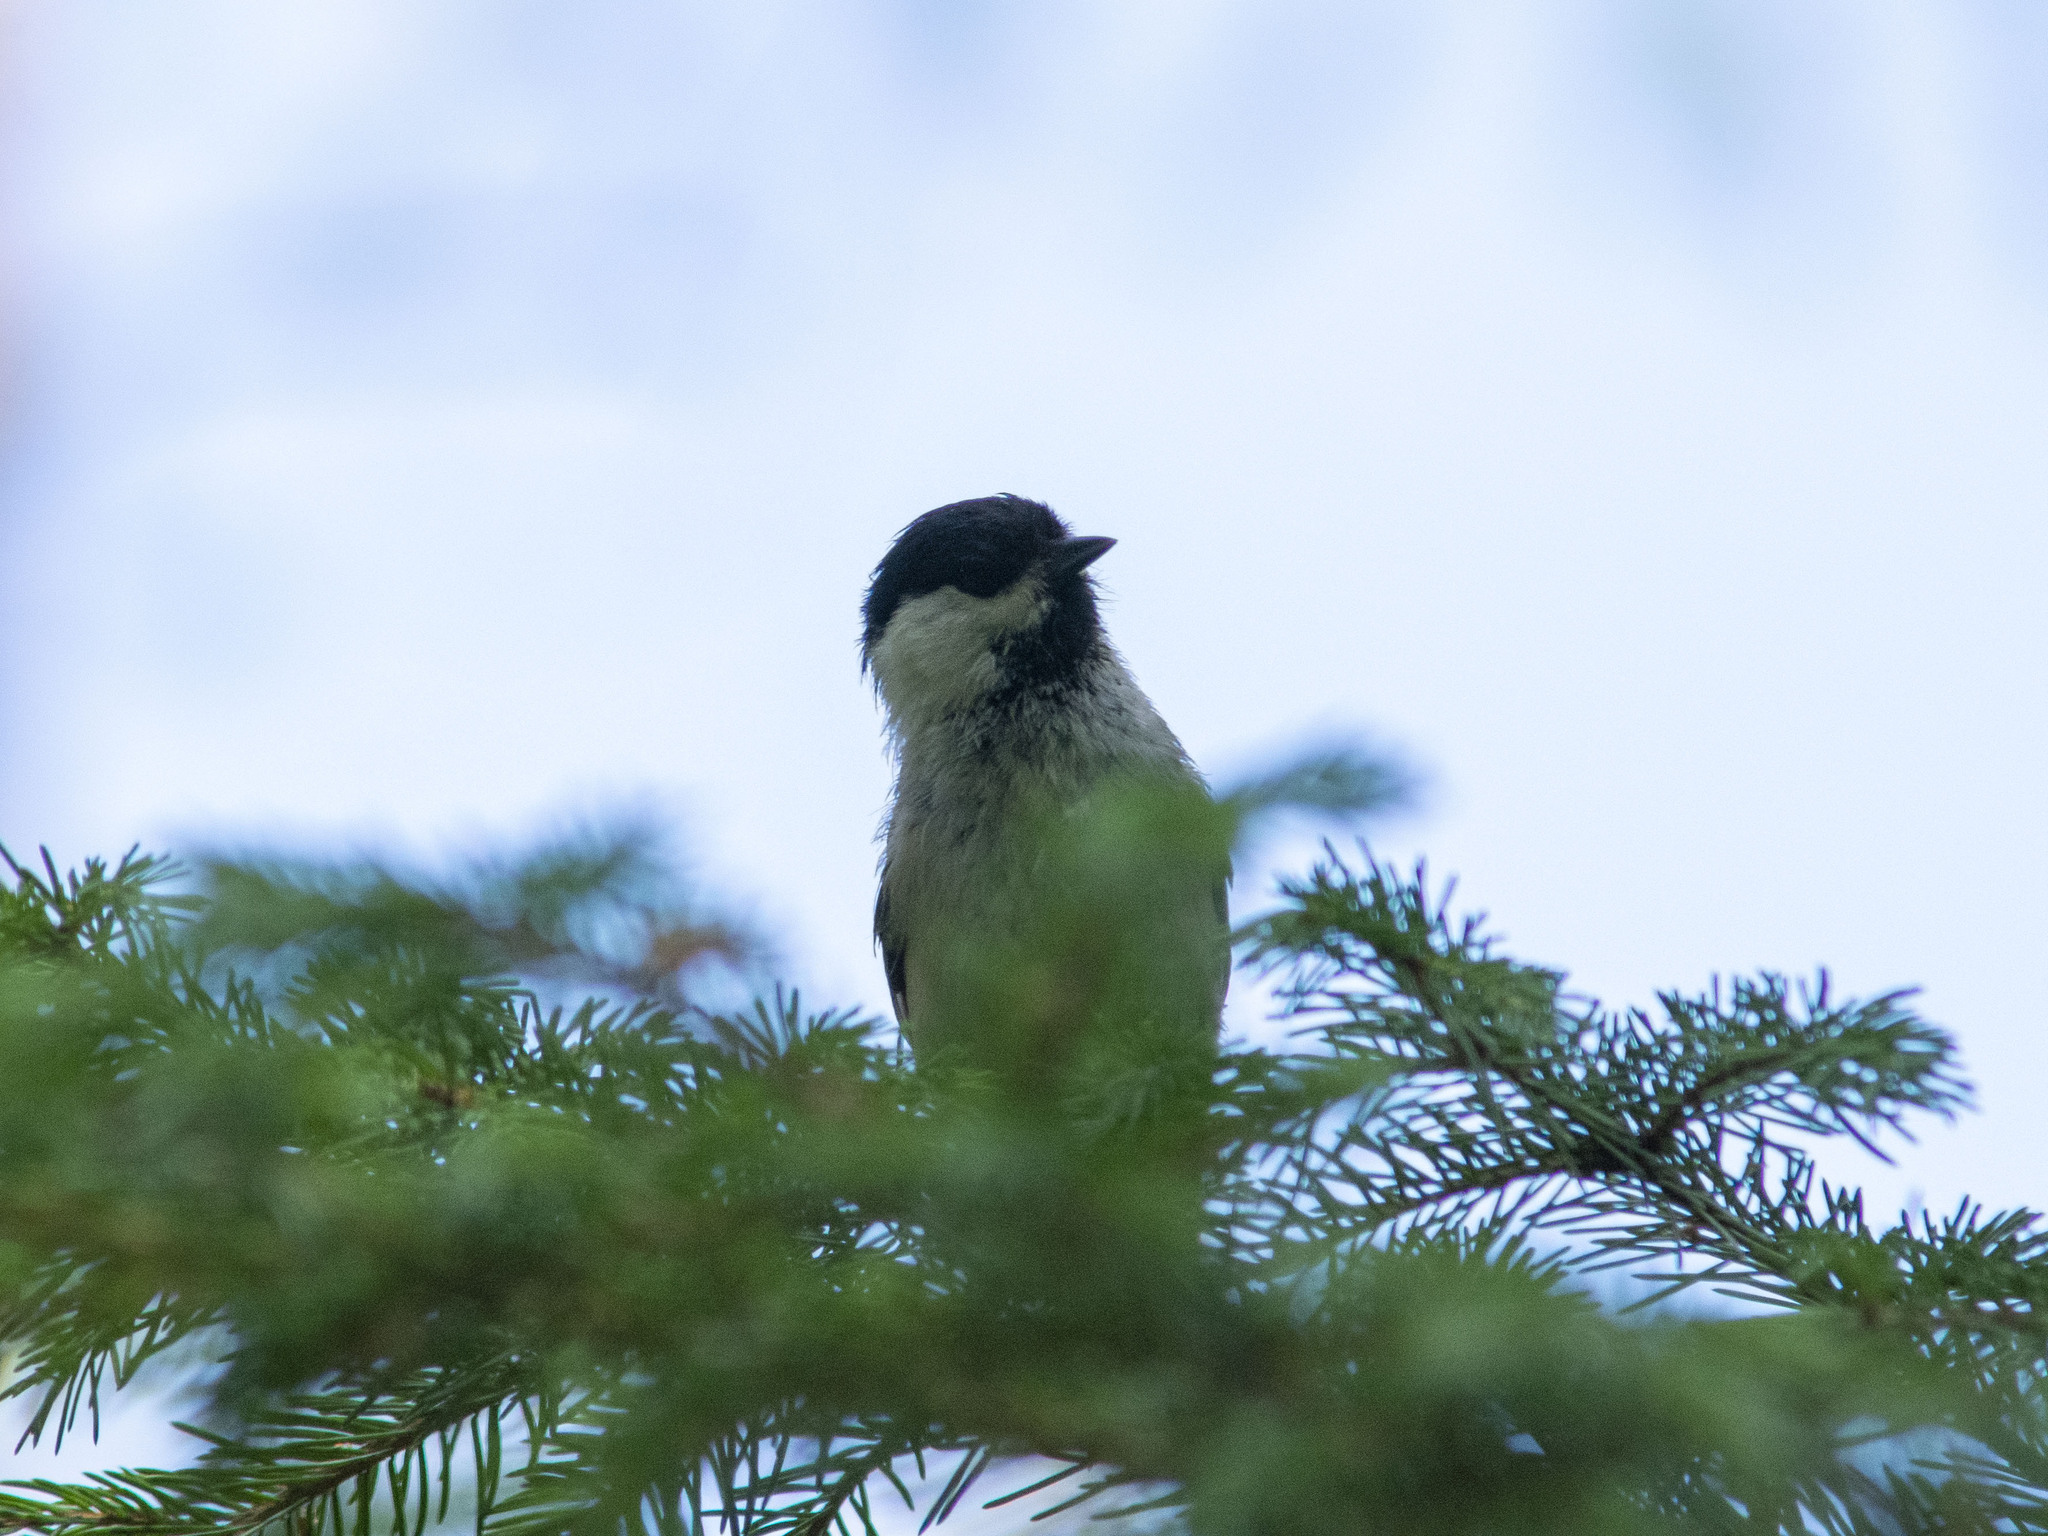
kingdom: Animalia
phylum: Chordata
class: Aves
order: Passeriformes
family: Paridae
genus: Poecile
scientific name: Poecile montanus
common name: Willow tit
